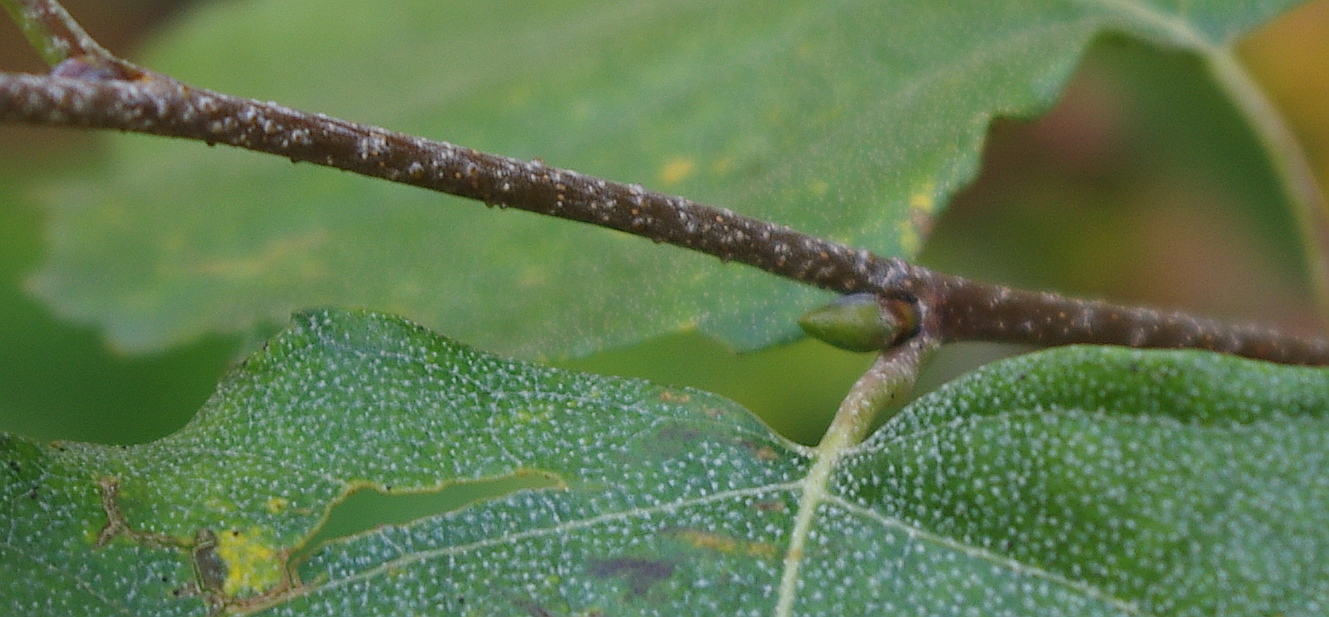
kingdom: Plantae
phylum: Tracheophyta
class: Magnoliopsida
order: Fagales
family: Betulaceae
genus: Betula
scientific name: Betula pendula
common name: Silver birch
